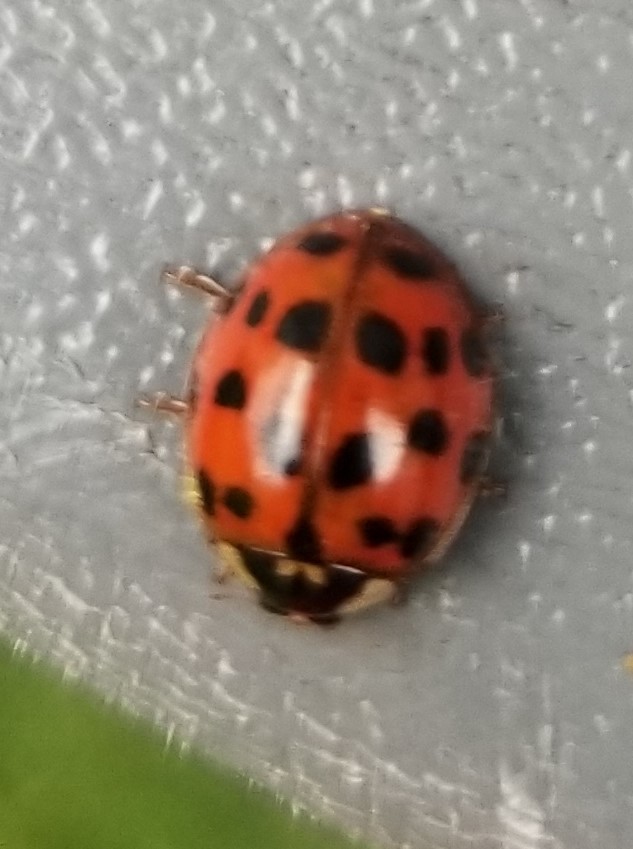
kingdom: Animalia
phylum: Arthropoda
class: Insecta
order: Coleoptera
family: Coccinellidae
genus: Harmonia
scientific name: Harmonia axyridis
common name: Harlequin ladybird
